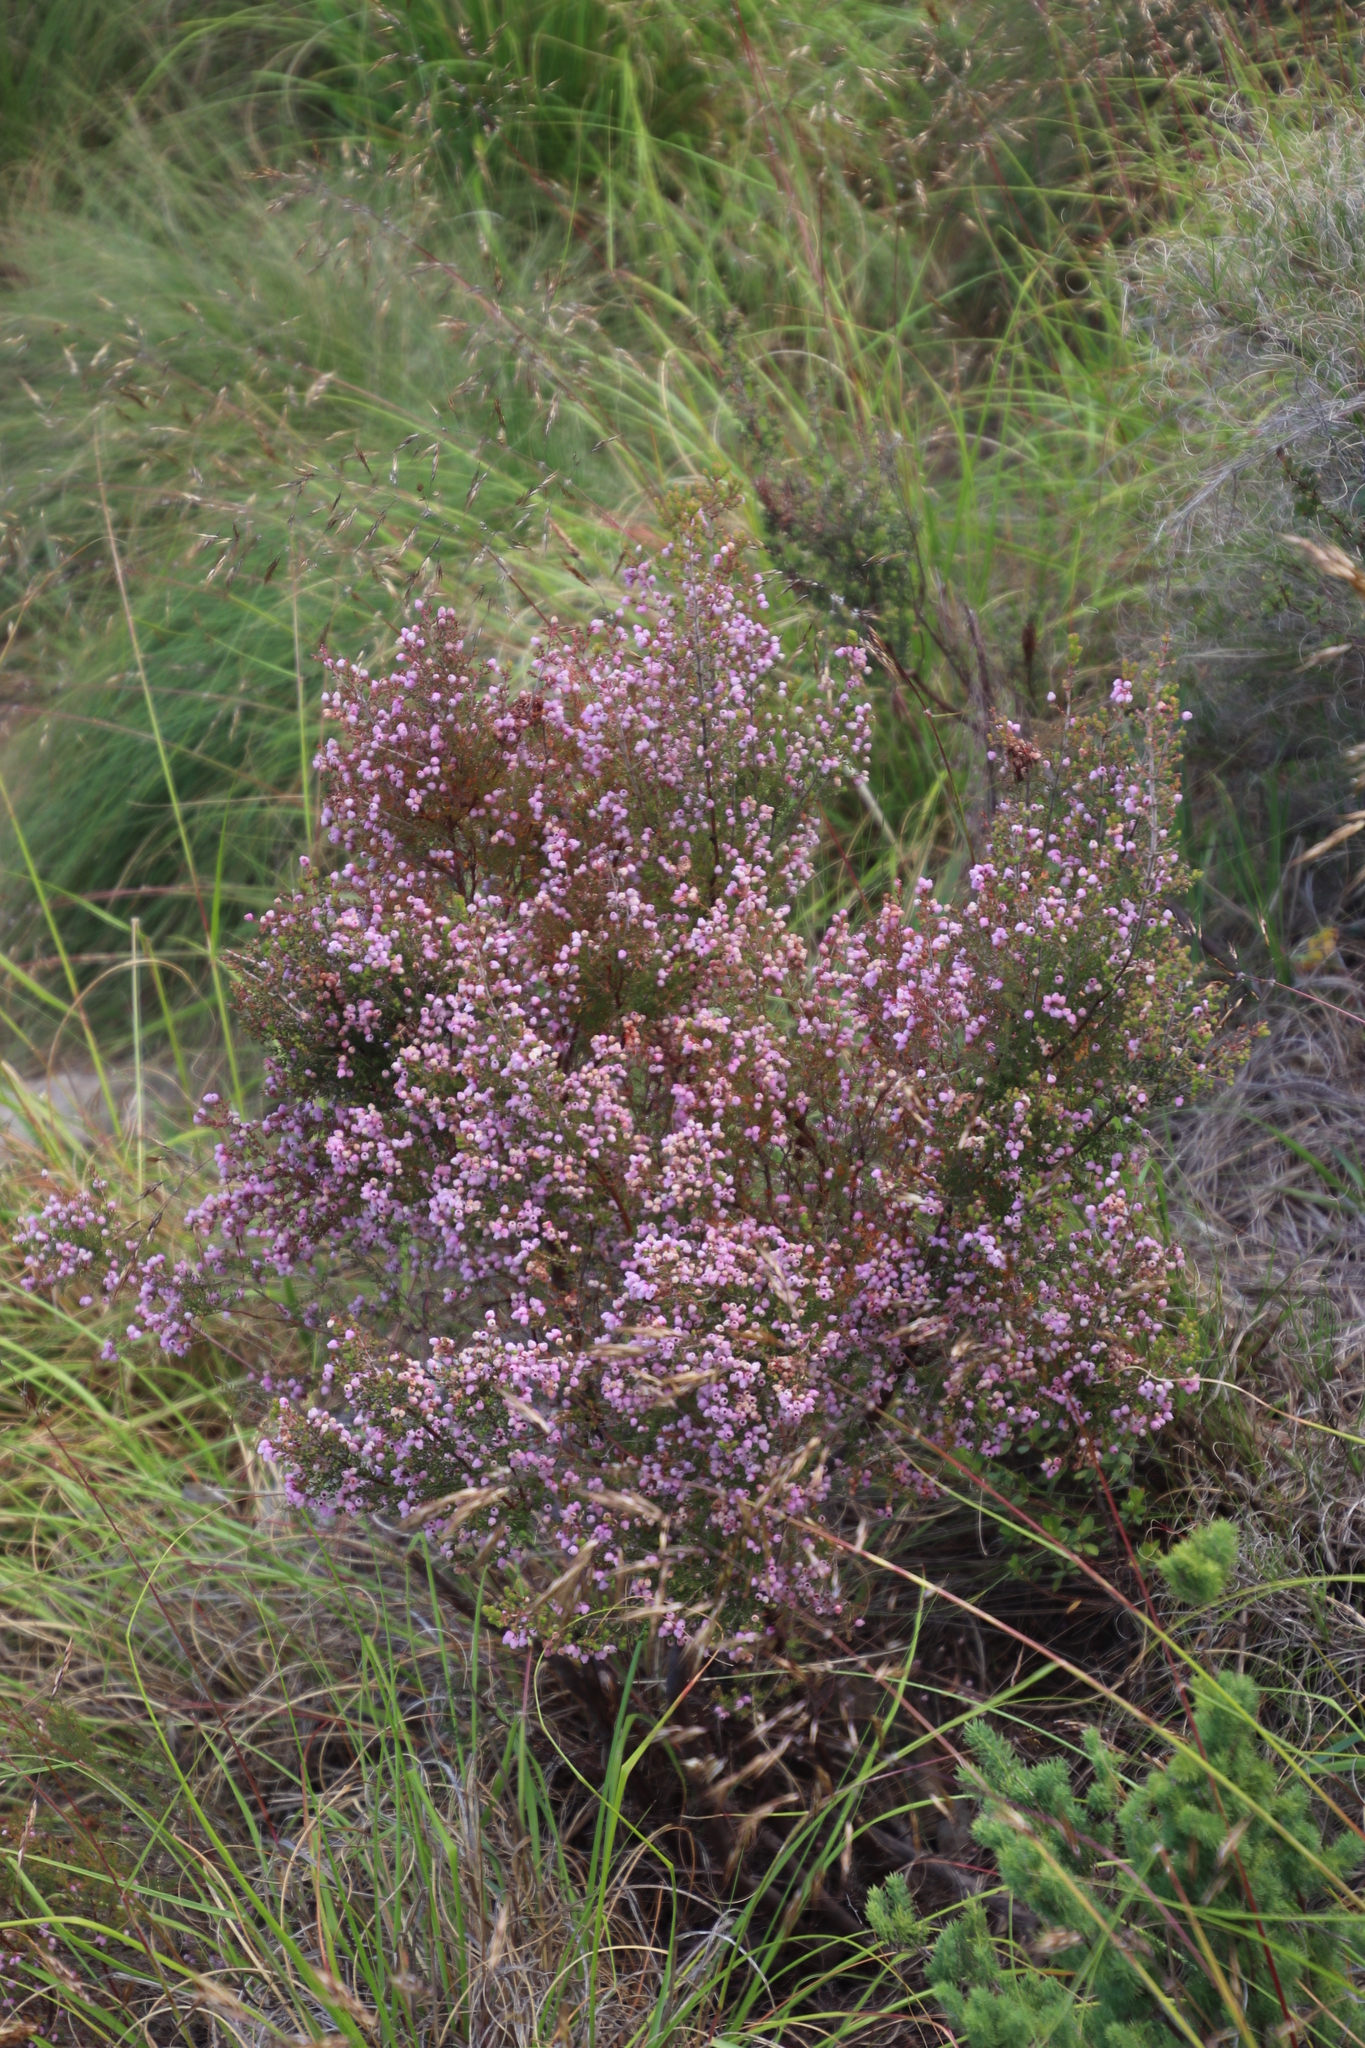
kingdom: Plantae
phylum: Tracheophyta
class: Magnoliopsida
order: Ericales
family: Ericaceae
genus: Erica
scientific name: Erica hirtiflora
